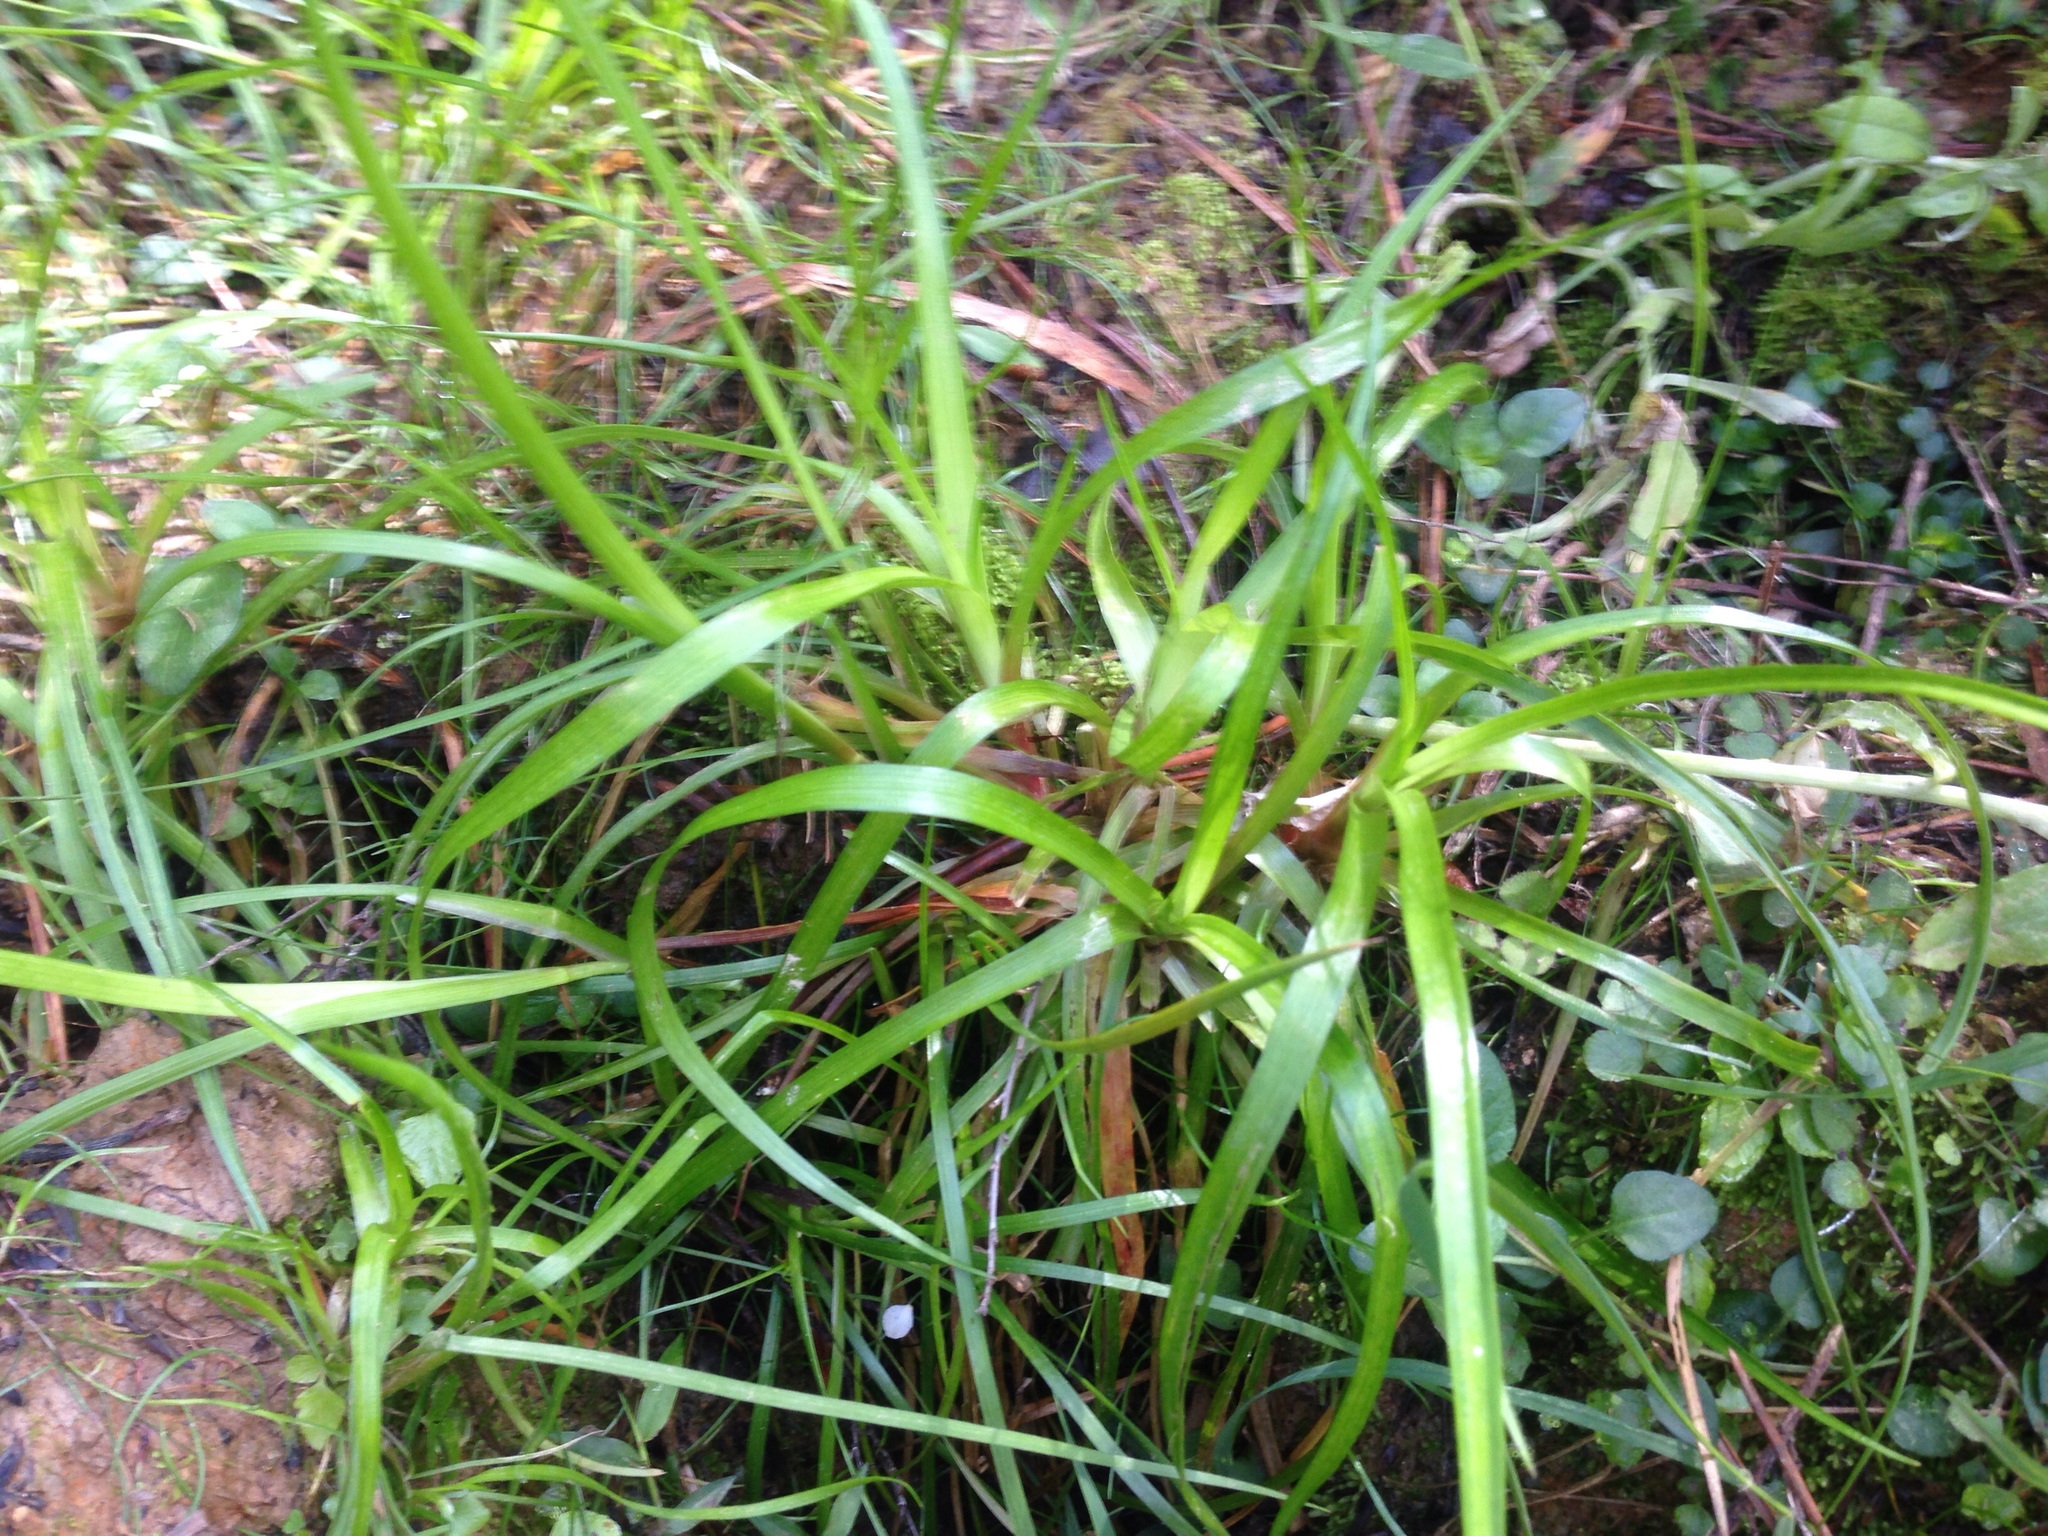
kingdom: Plantae
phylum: Tracheophyta
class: Liliopsida
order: Poales
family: Juncaceae
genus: Juncus
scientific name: Juncus planifolius
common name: Broadleaf rush
